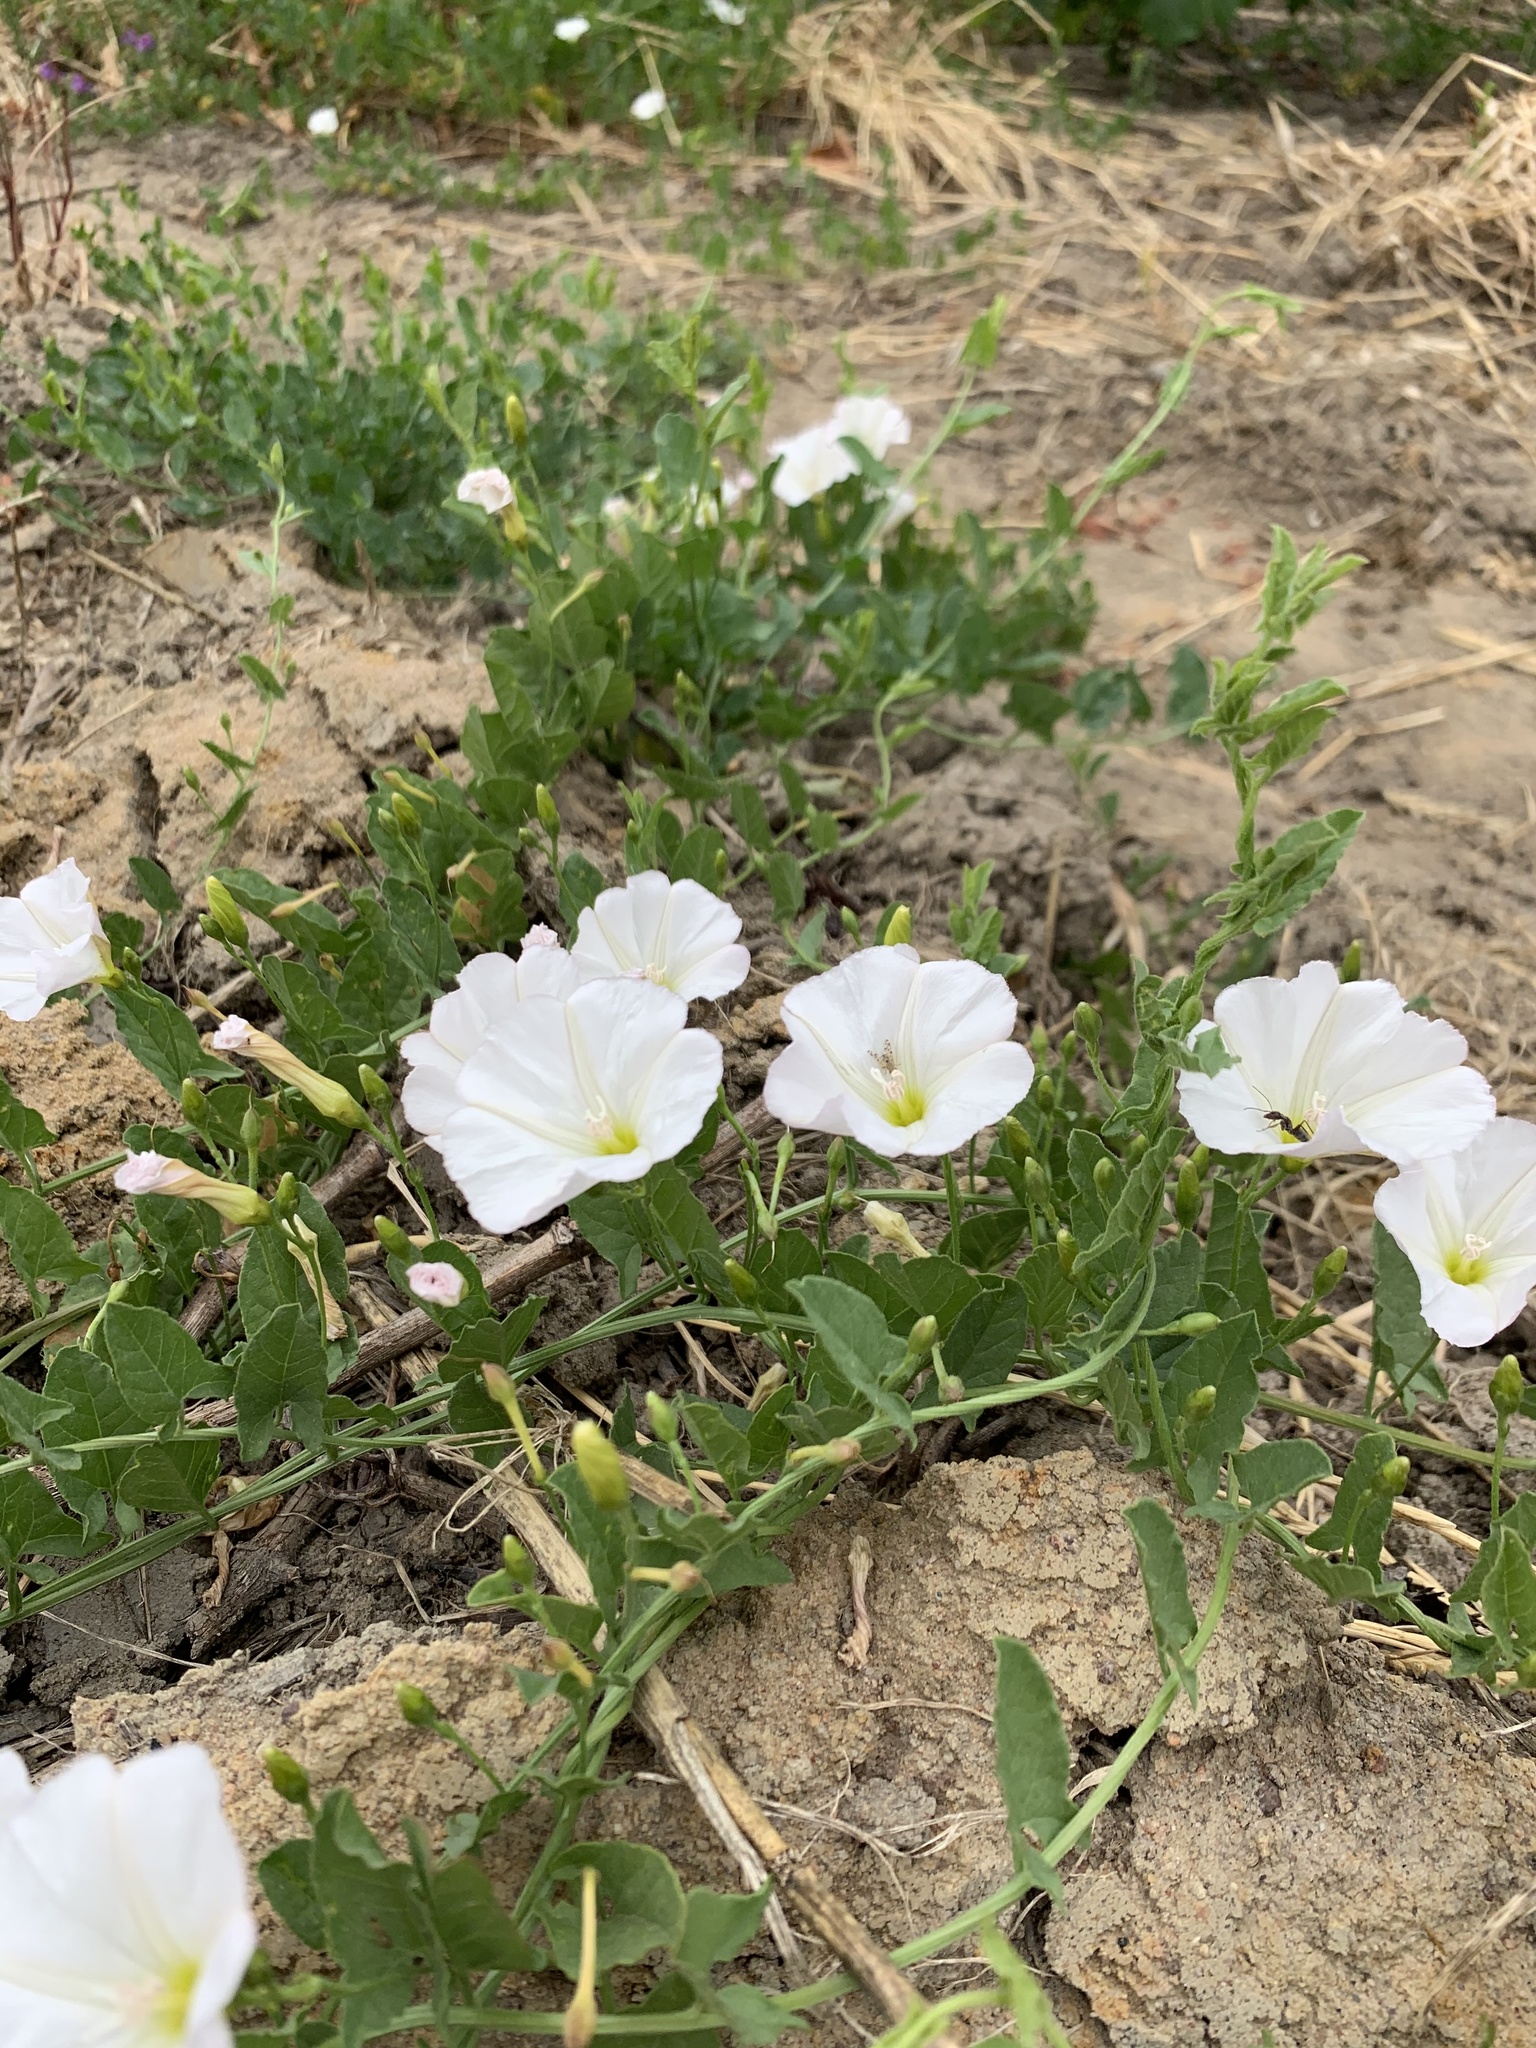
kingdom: Plantae
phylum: Tracheophyta
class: Magnoliopsida
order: Solanales
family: Convolvulaceae
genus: Convolvulus
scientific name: Convolvulus arvensis
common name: Field bindweed
